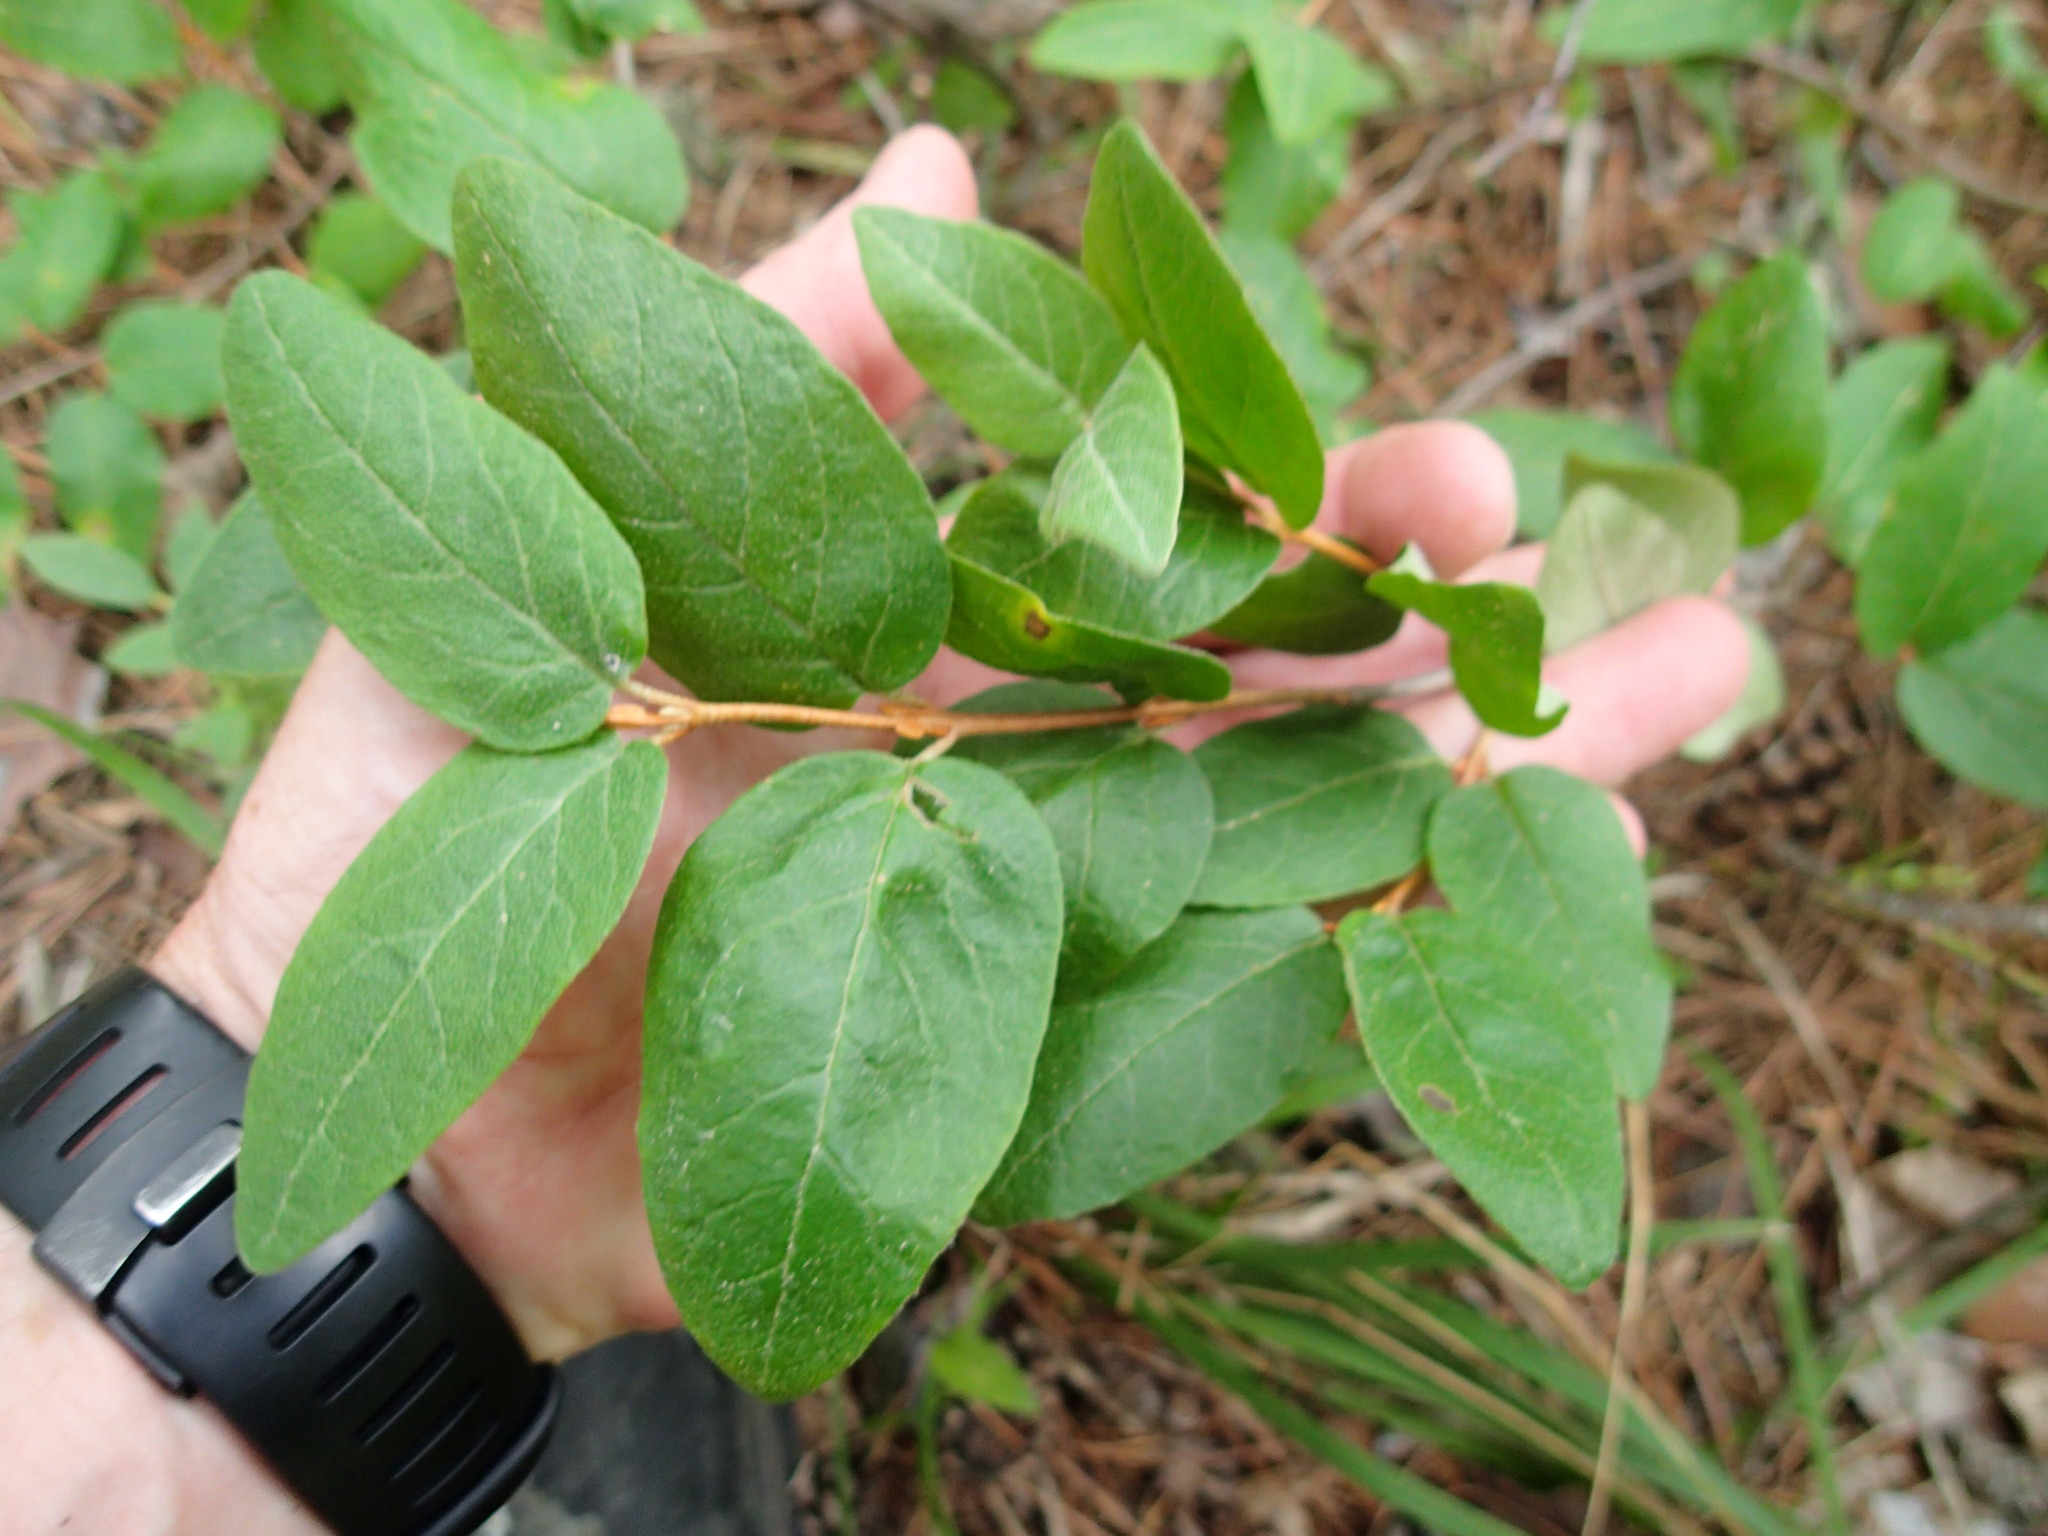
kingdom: Plantae
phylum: Tracheophyta
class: Magnoliopsida
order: Rosales
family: Elaeagnaceae
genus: Shepherdia
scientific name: Shepherdia canadensis
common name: Soapberry
